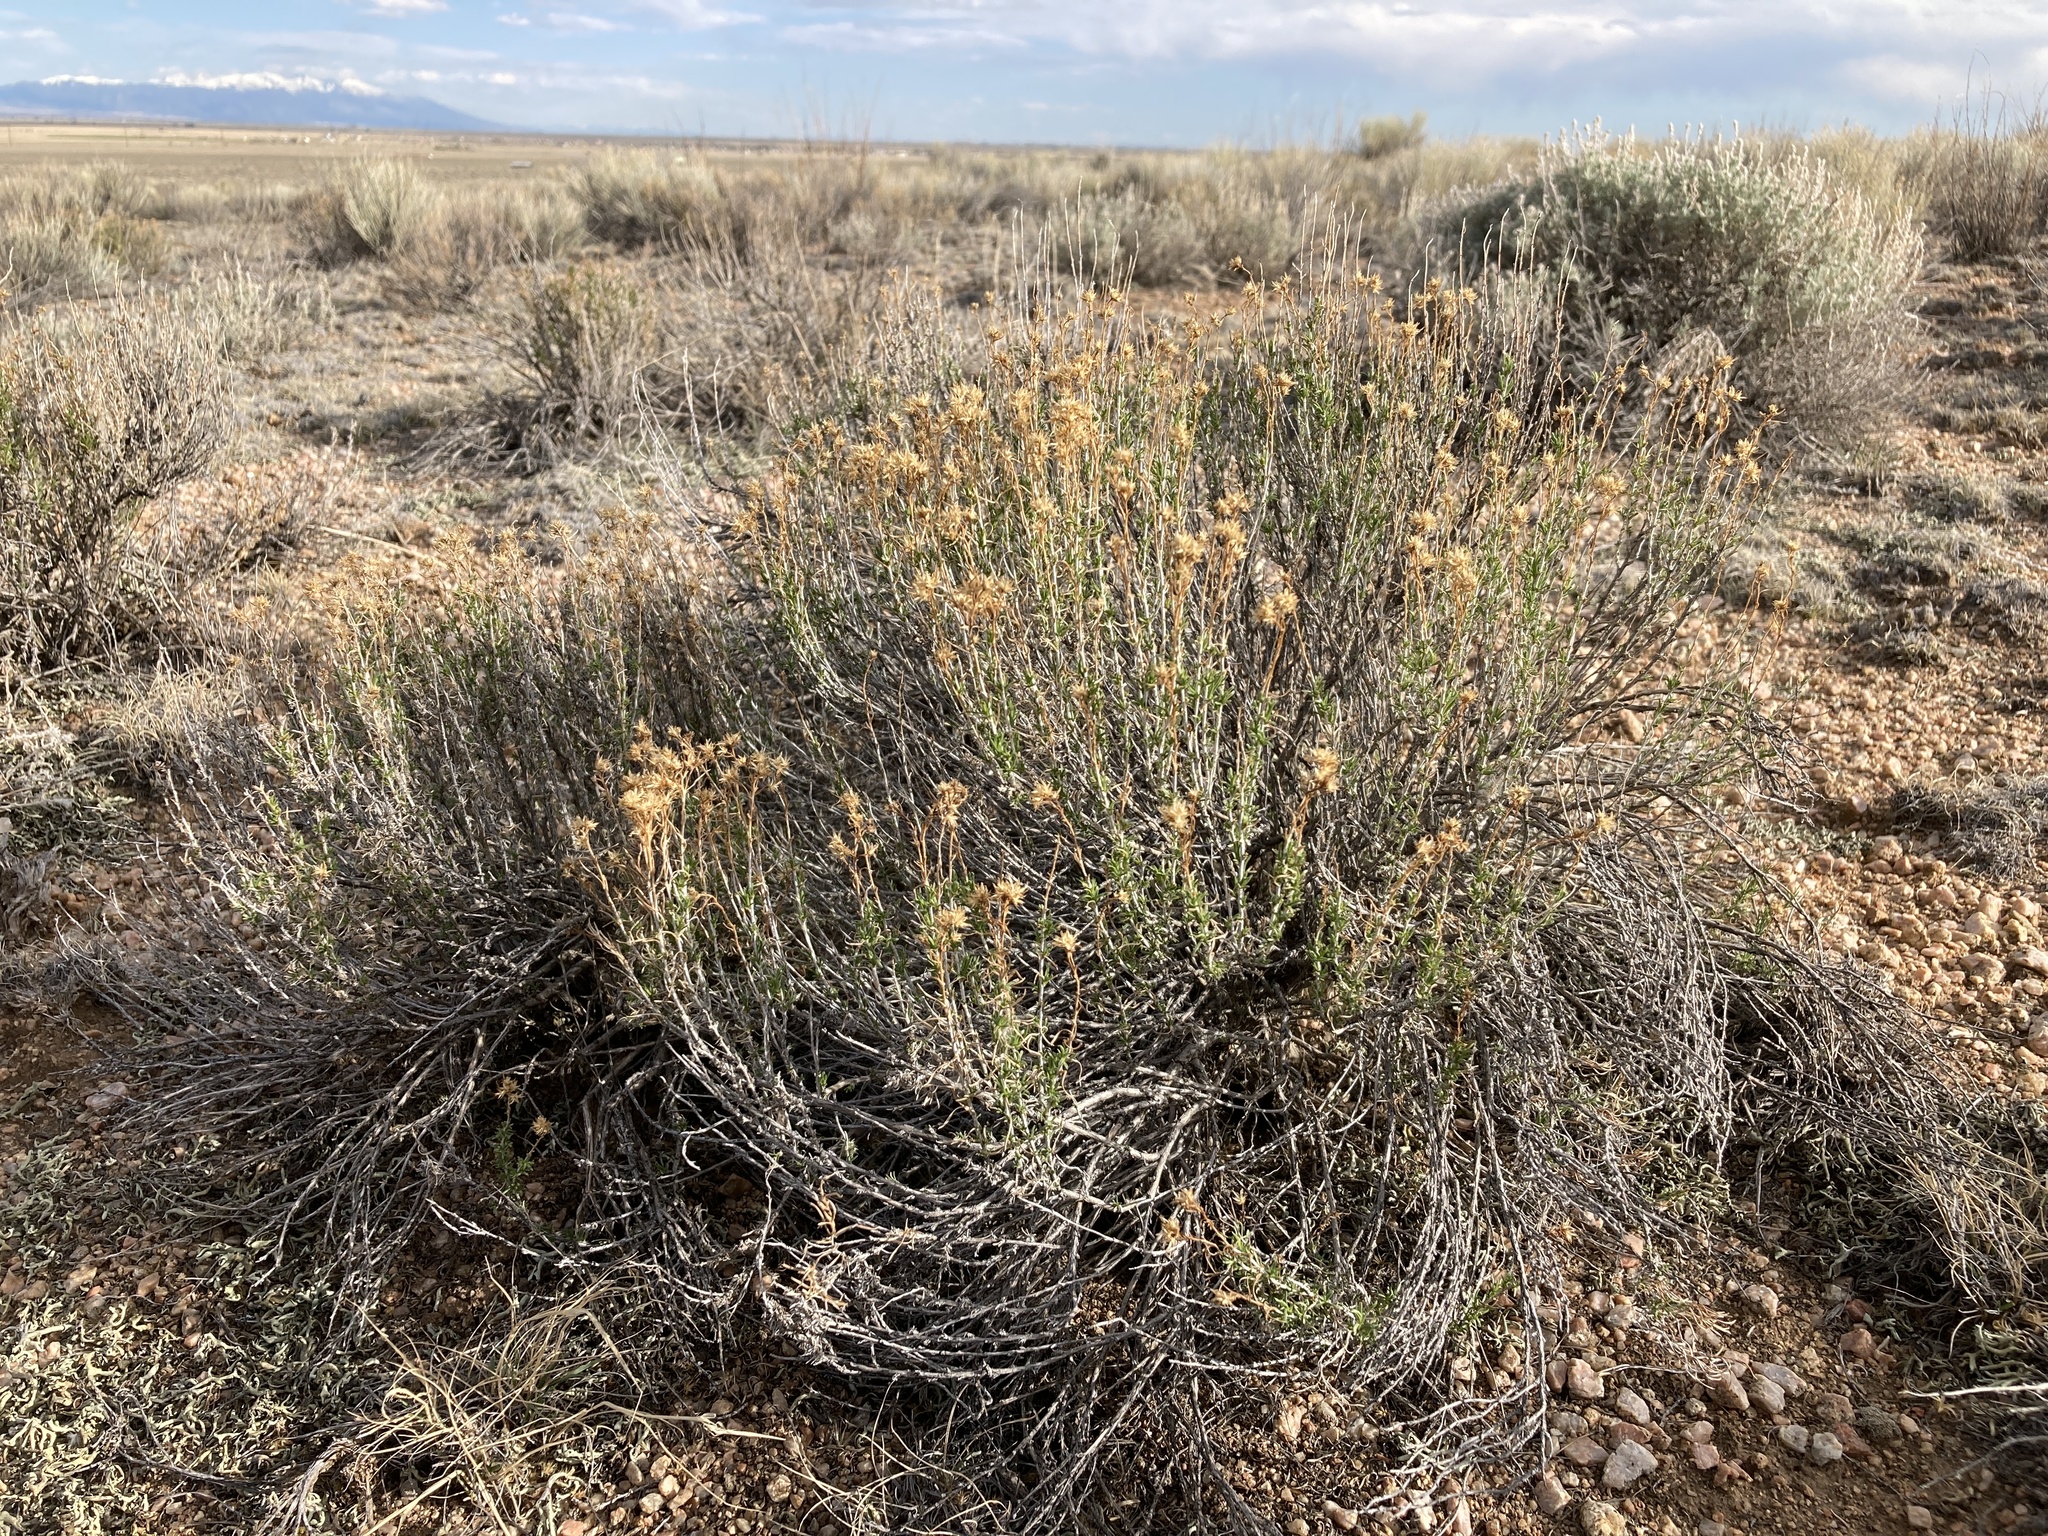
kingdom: Plantae
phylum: Tracheophyta
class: Magnoliopsida
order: Asterales
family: Asteraceae
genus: Chrysothamnus
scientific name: Chrysothamnus greenei
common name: Greene's rabbitbrush
